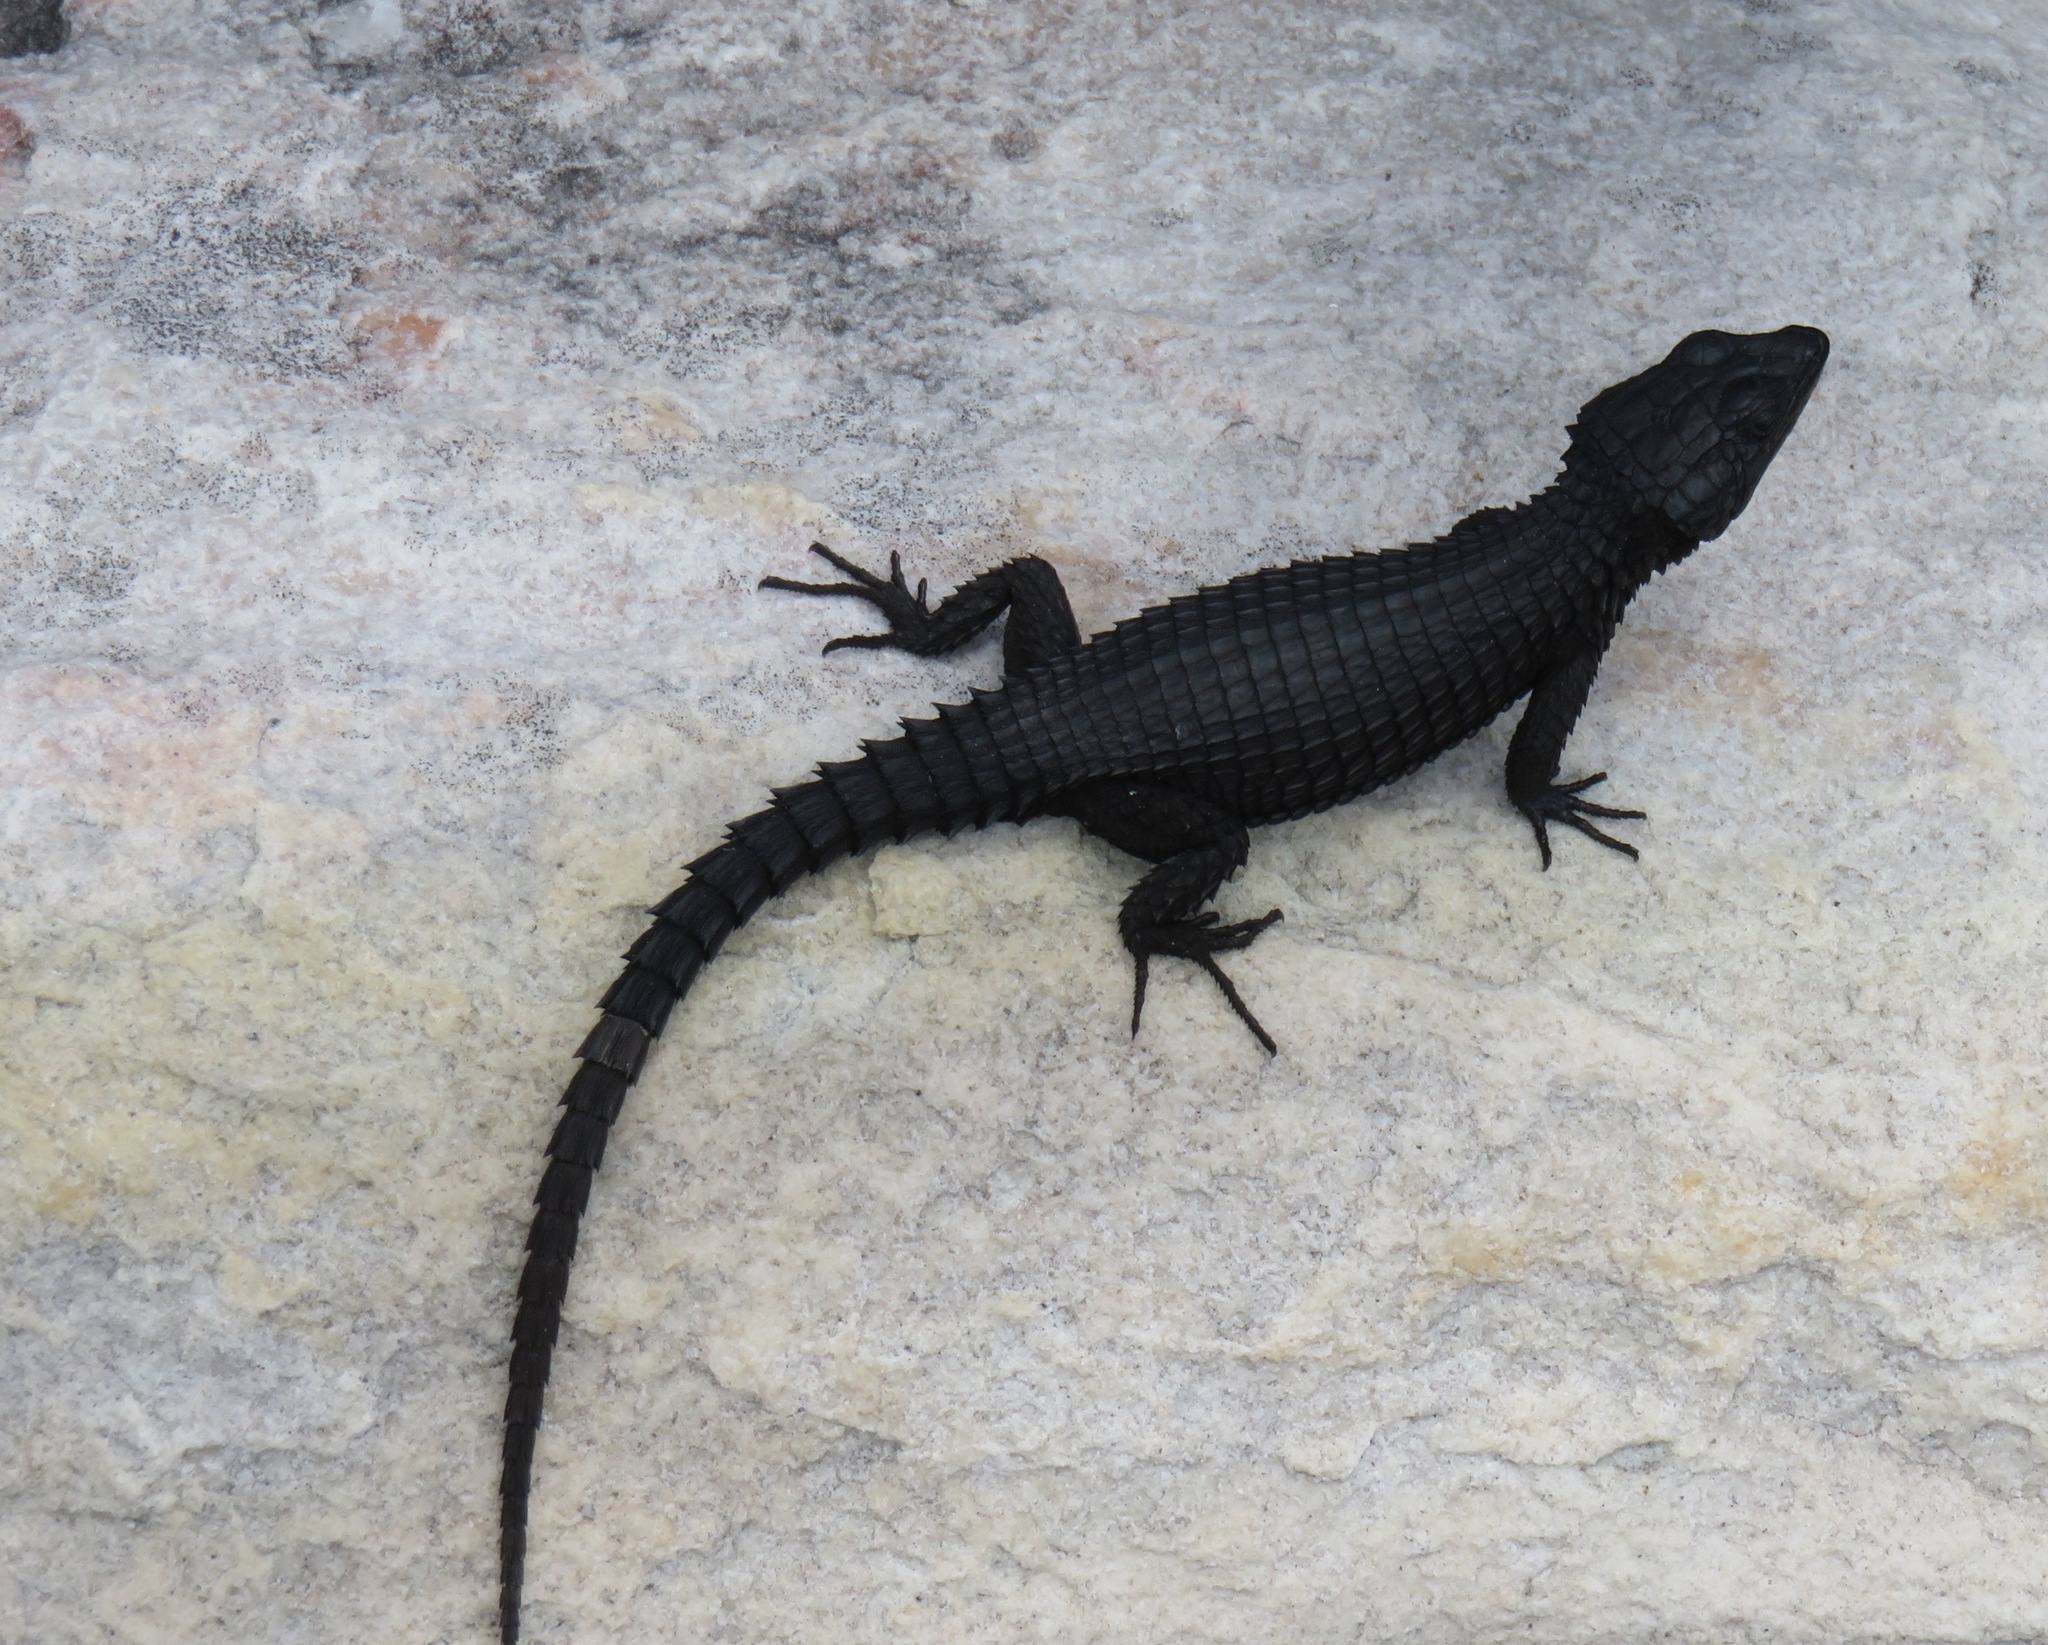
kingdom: Animalia
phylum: Chordata
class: Squamata
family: Cordylidae
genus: Cordylus
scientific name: Cordylus niger
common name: Black girdled lizard
